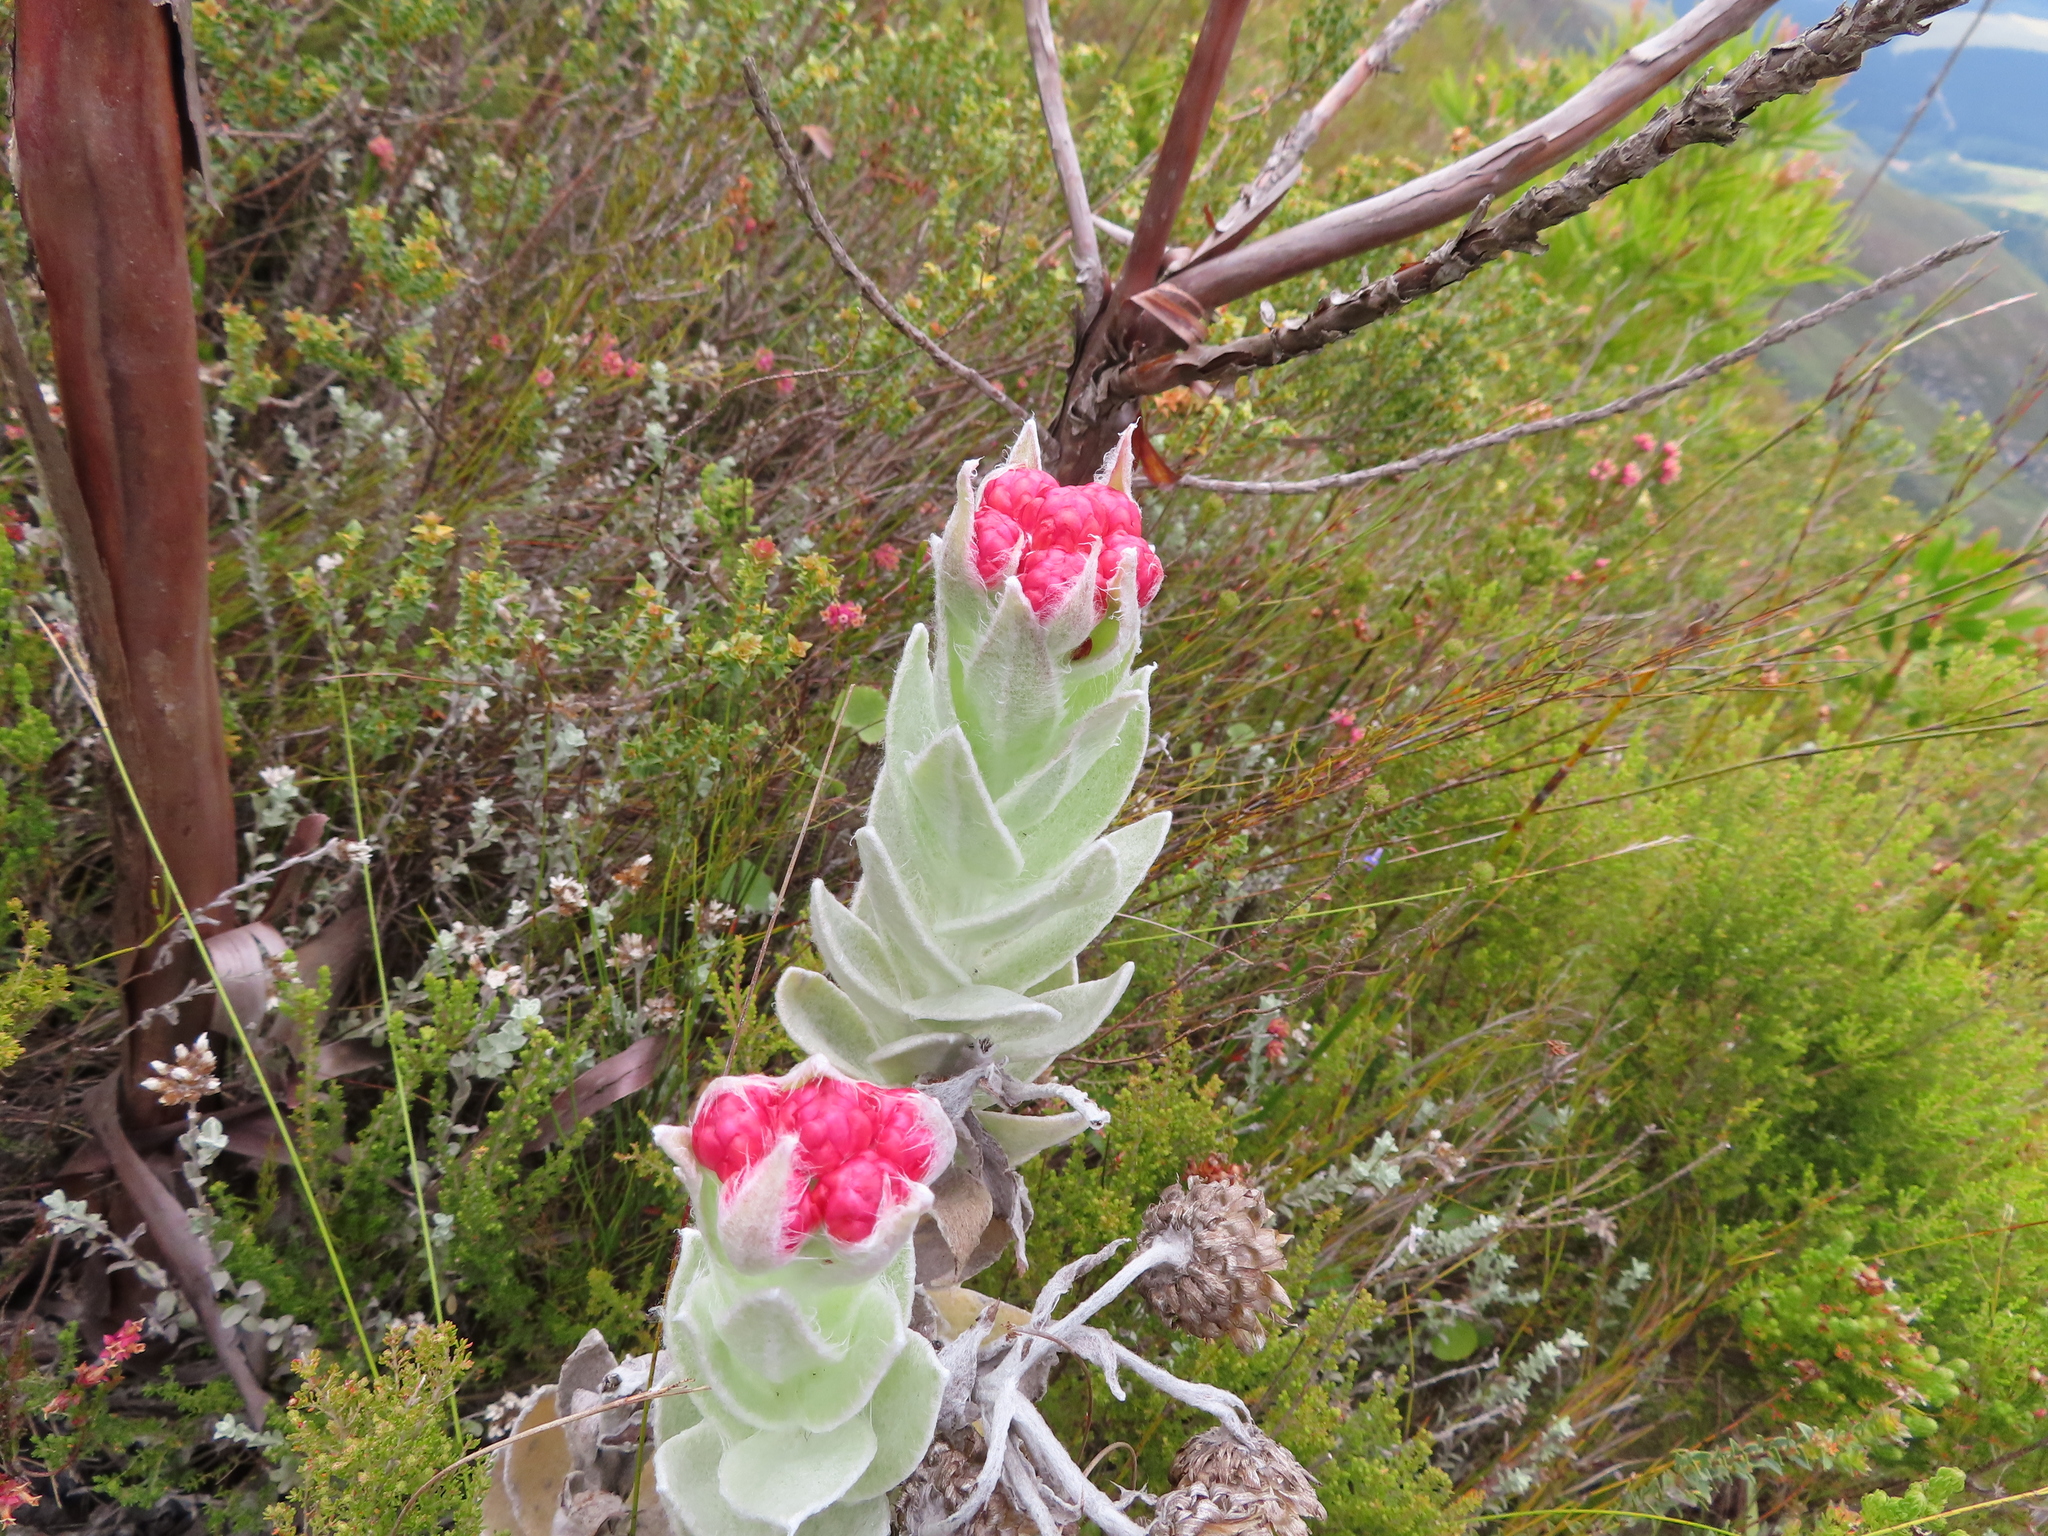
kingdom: Plantae
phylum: Tracheophyta
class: Magnoliopsida
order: Asterales
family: Asteraceae
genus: Syncarpha
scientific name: Syncarpha eximia
